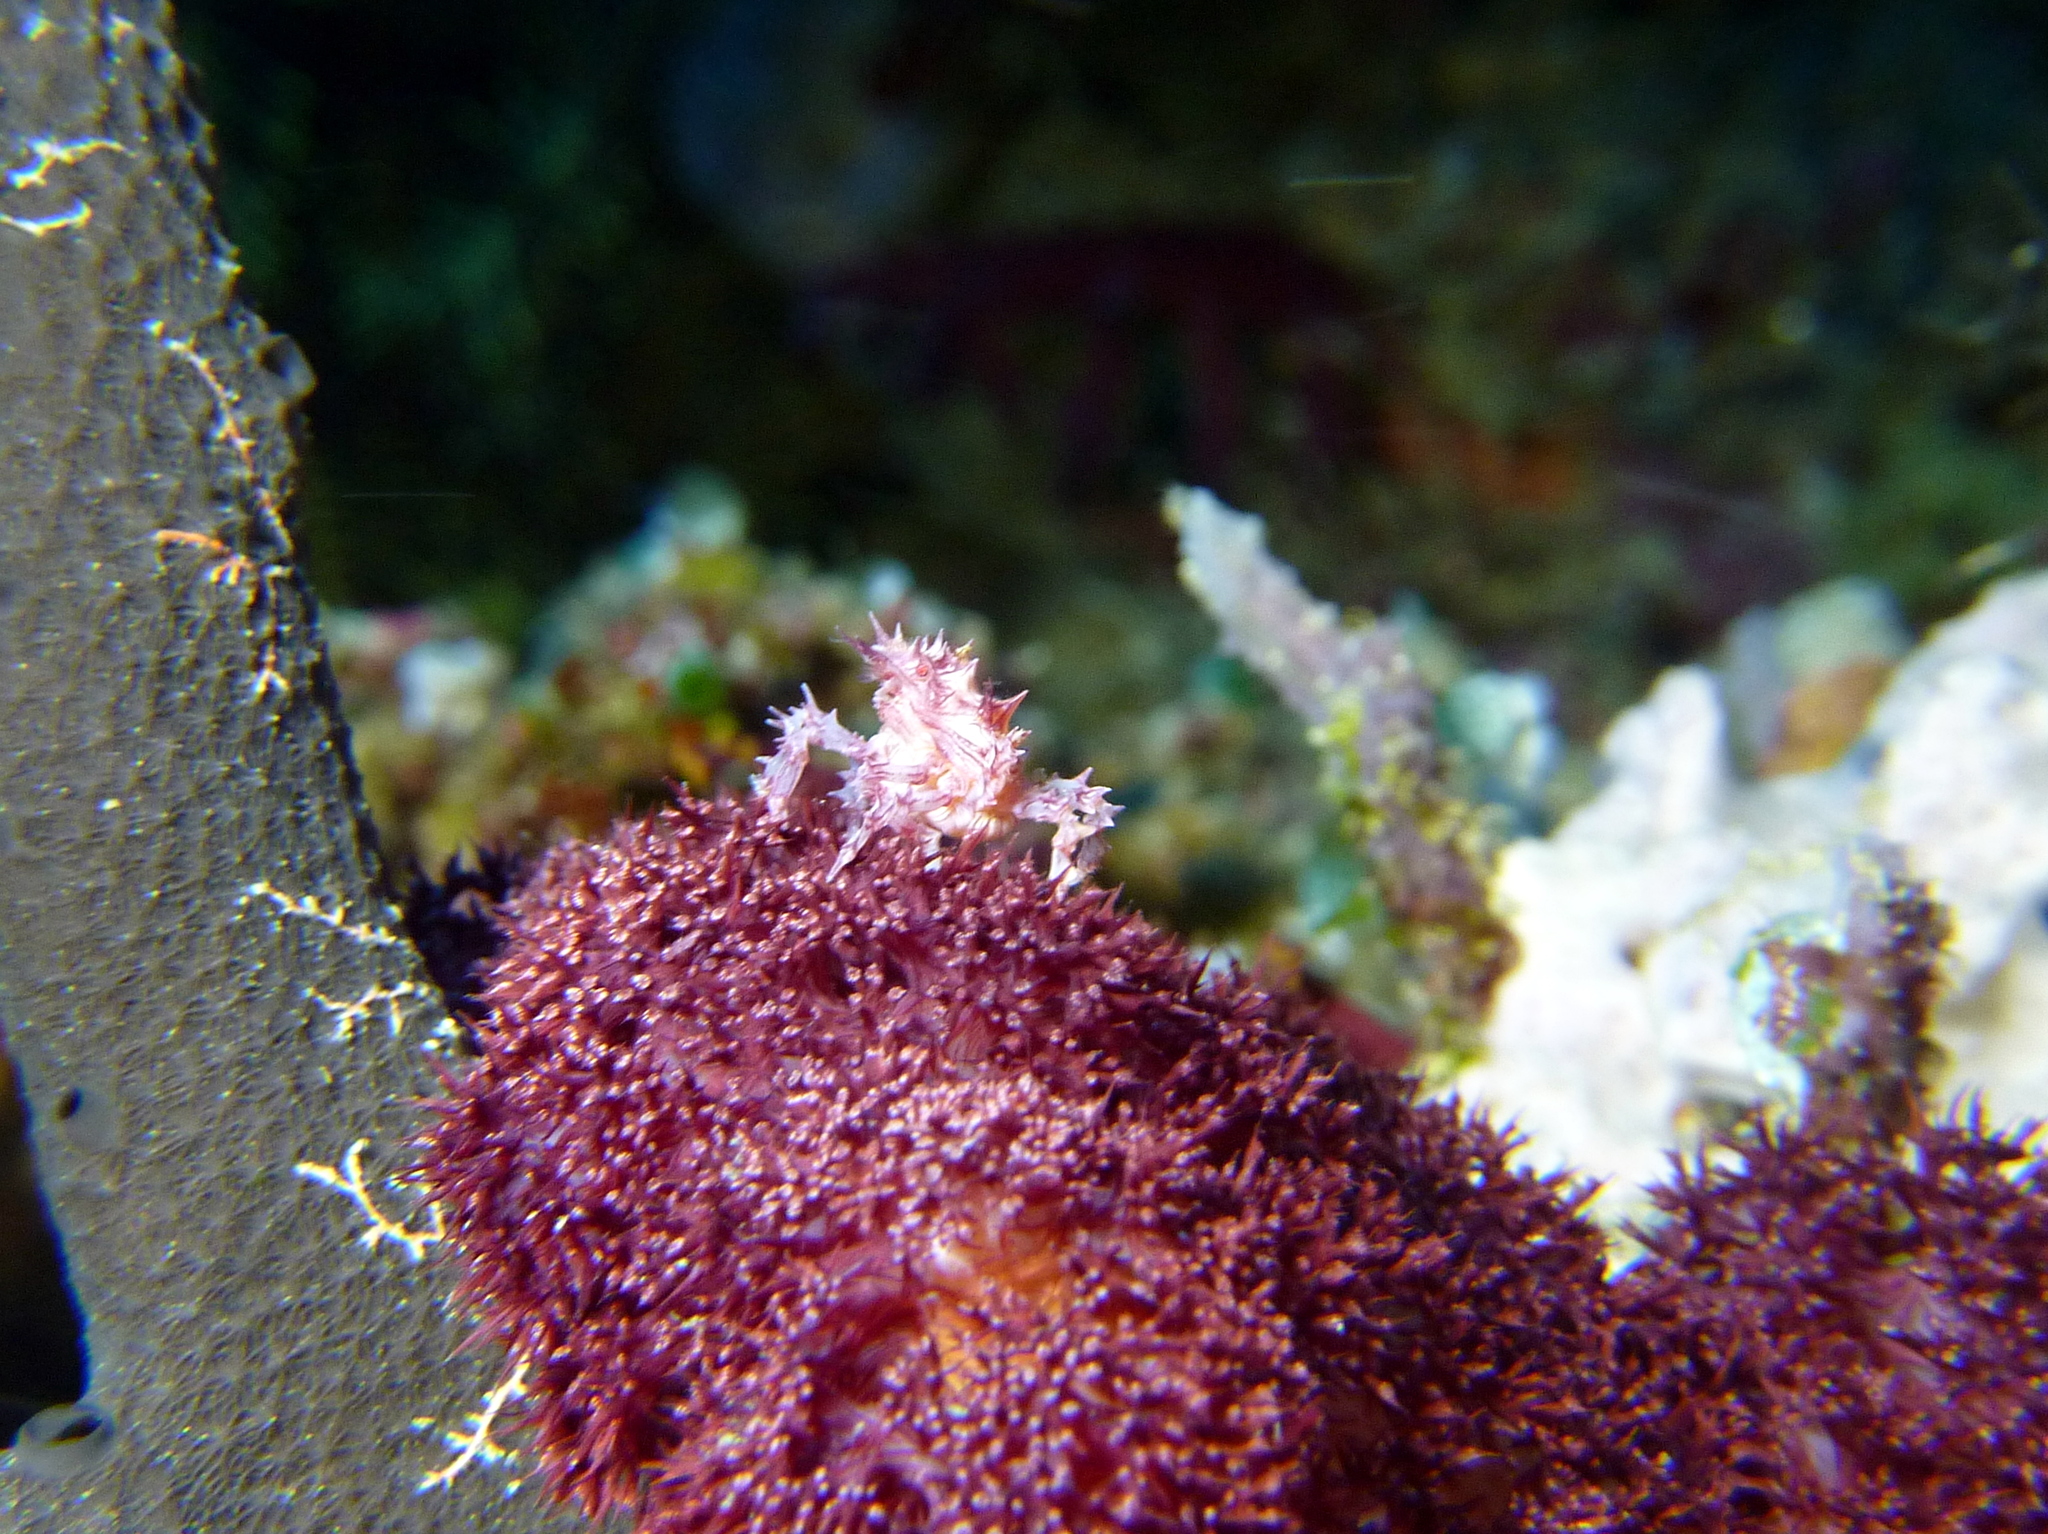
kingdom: Animalia
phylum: Arthropoda
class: Malacostraca
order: Decapoda
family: Epialtidae
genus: Hoplophrys
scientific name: Hoplophrys oatesii
